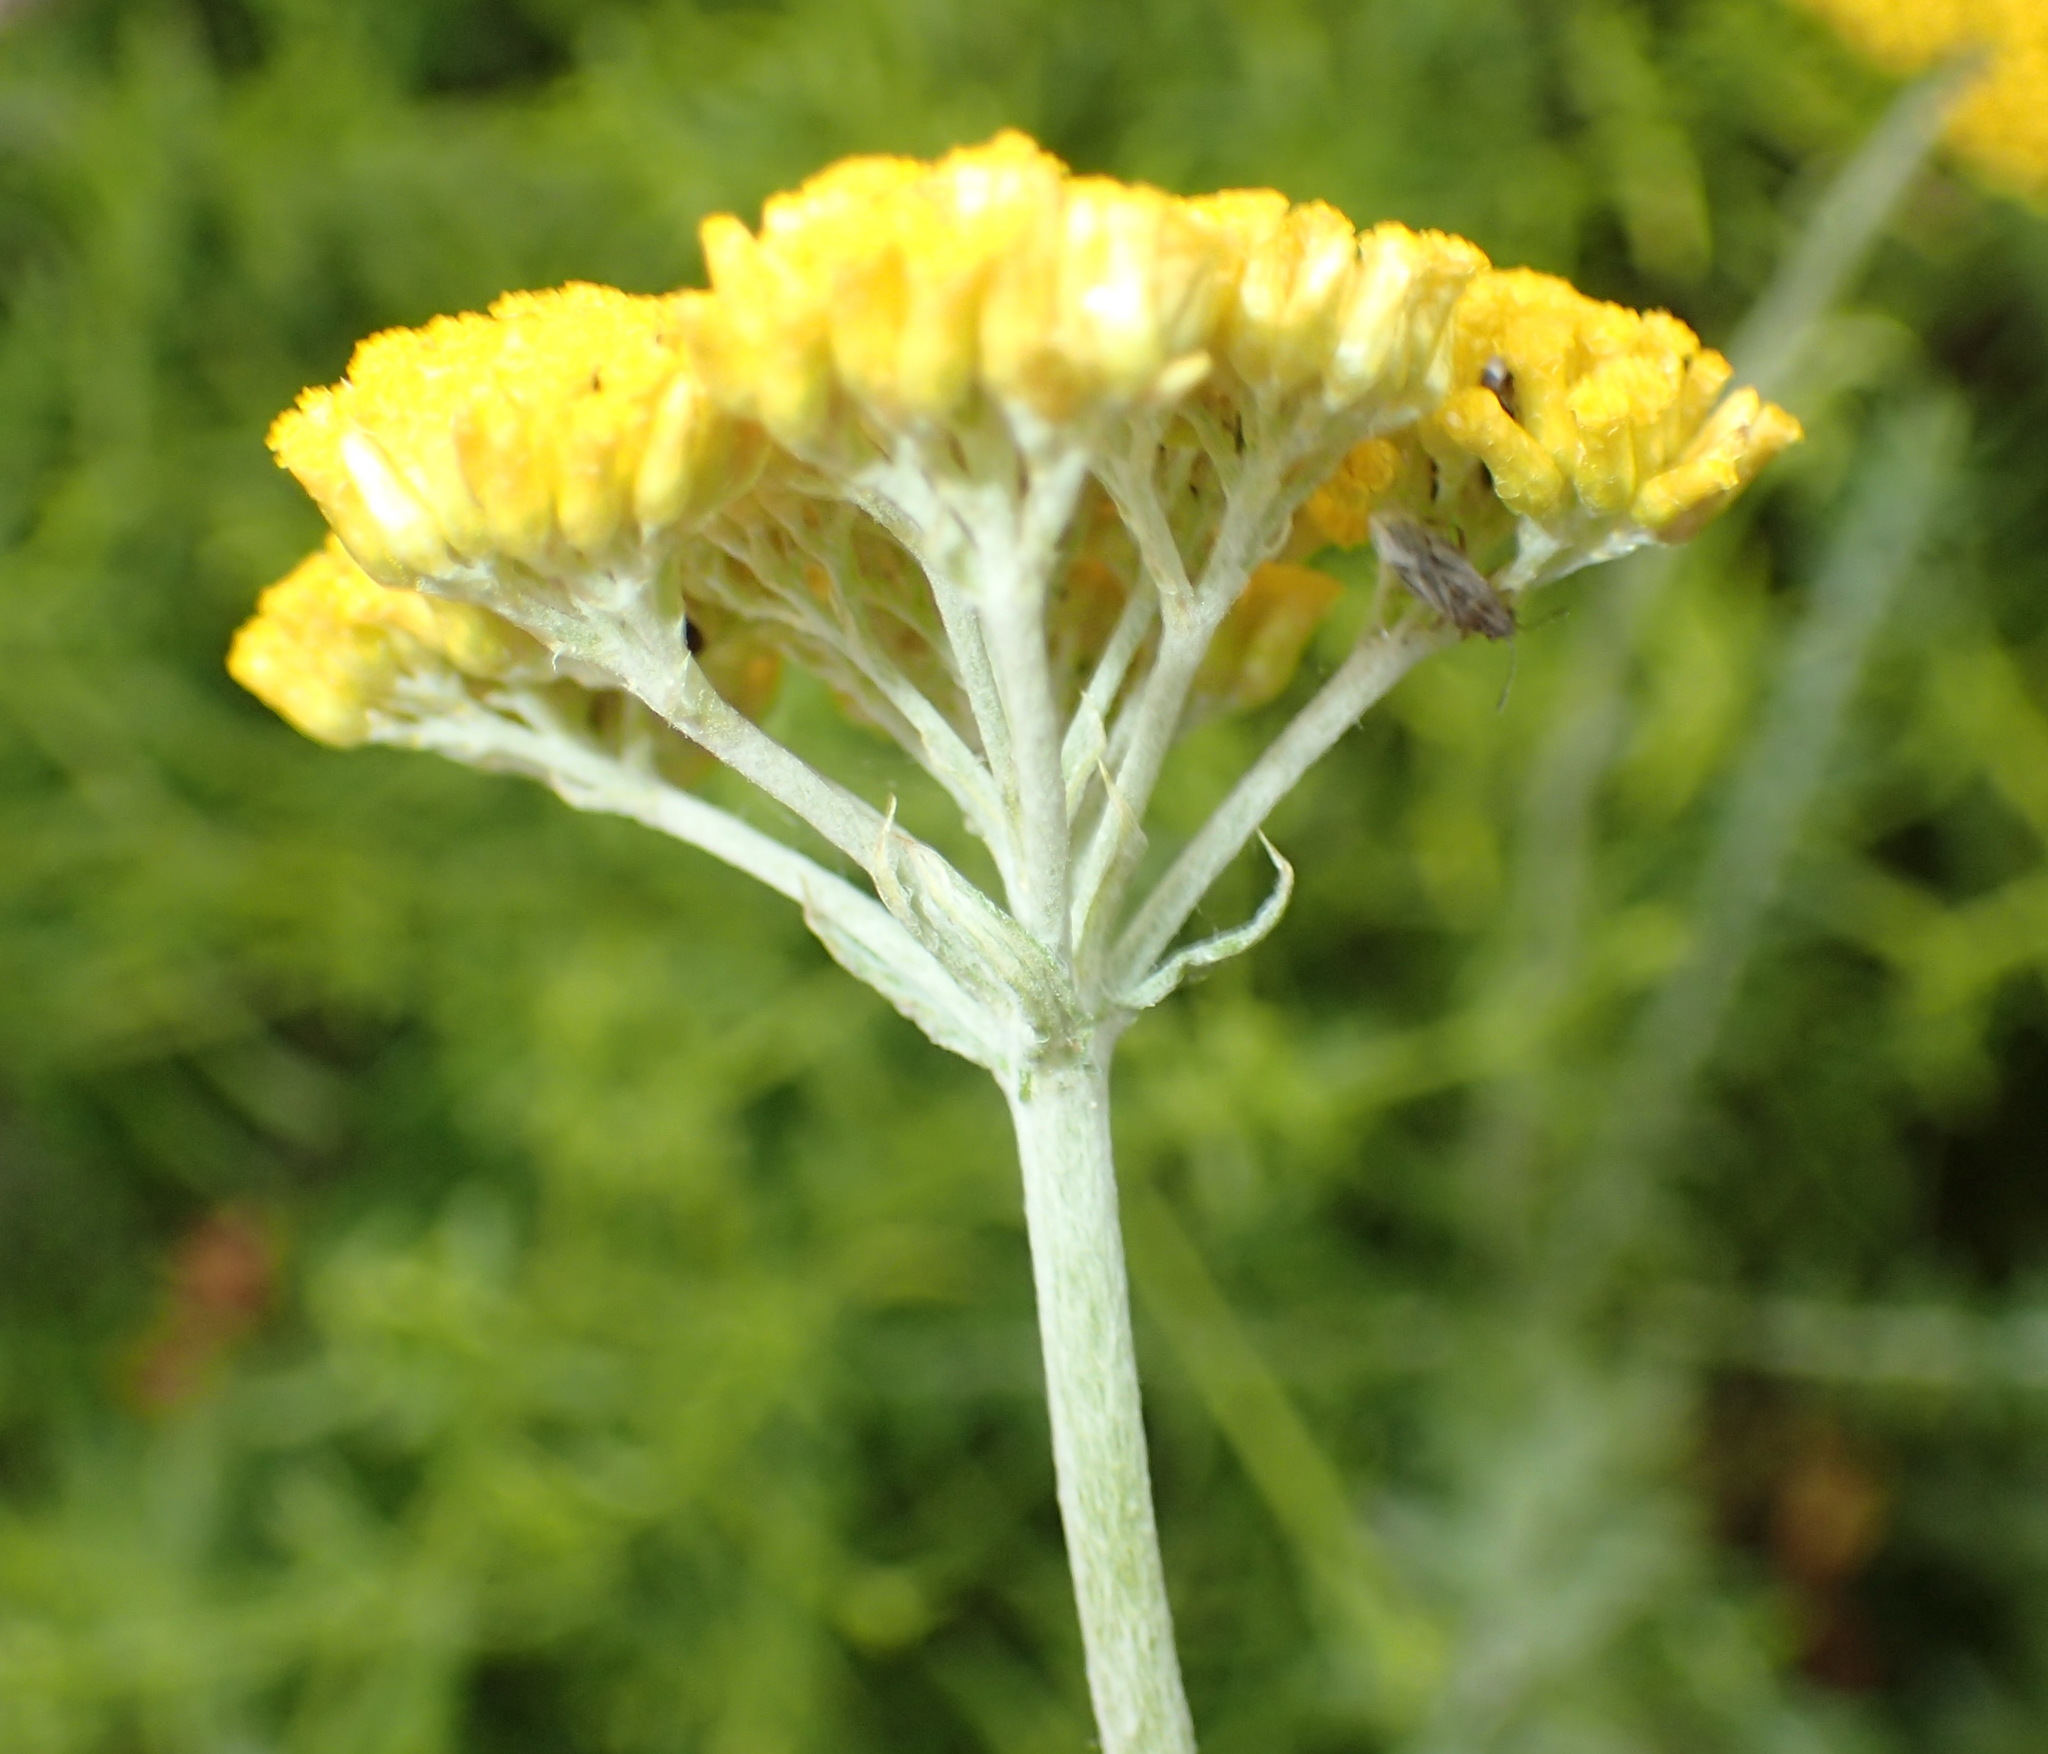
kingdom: Plantae
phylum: Tracheophyta
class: Magnoliopsida
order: Asterales
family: Asteraceae
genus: Helichrysum
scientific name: Helichrysum cymosum
